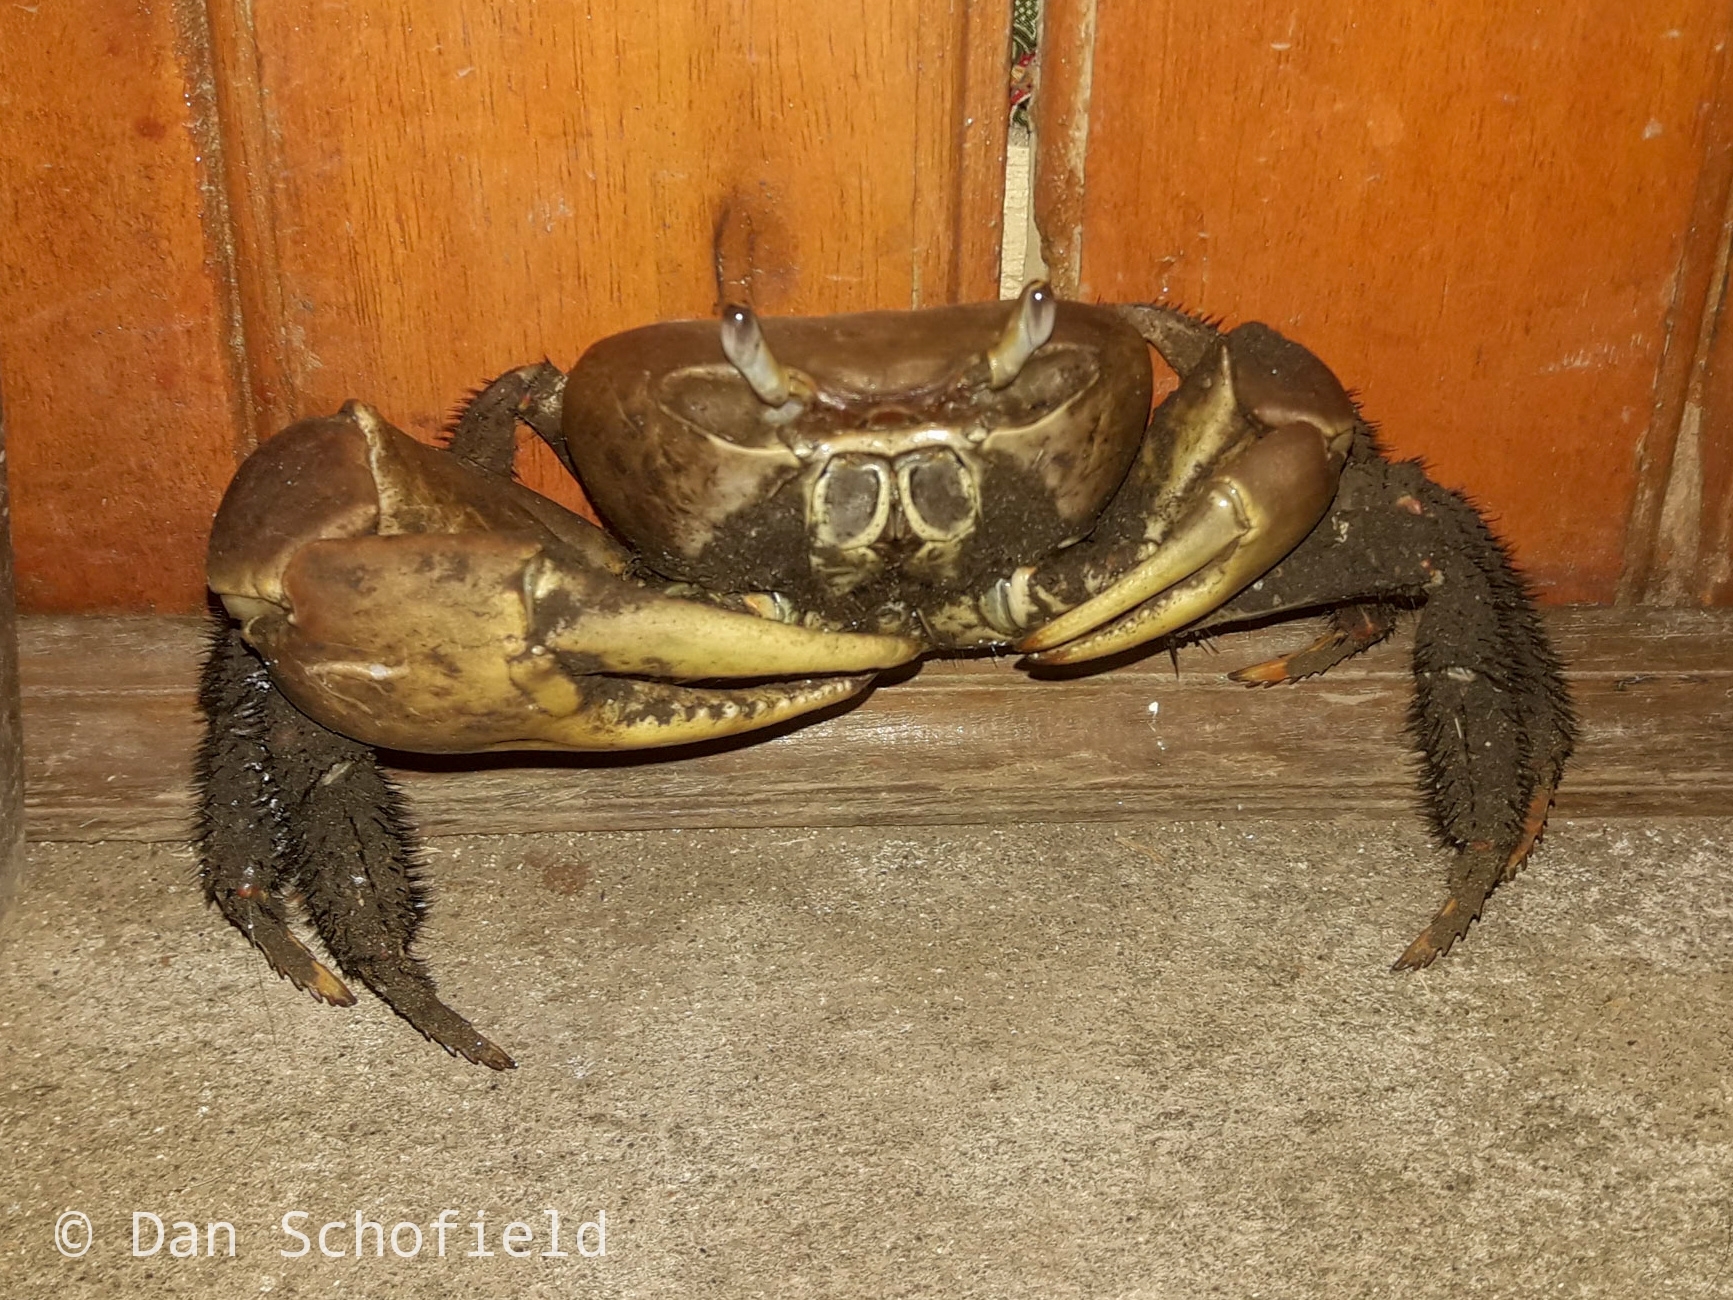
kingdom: Animalia
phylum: Arthropoda
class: Malacostraca
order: Decapoda
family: Gecarcinidae
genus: Cardisoma
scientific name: Cardisoma carnifex
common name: Brown land crab
